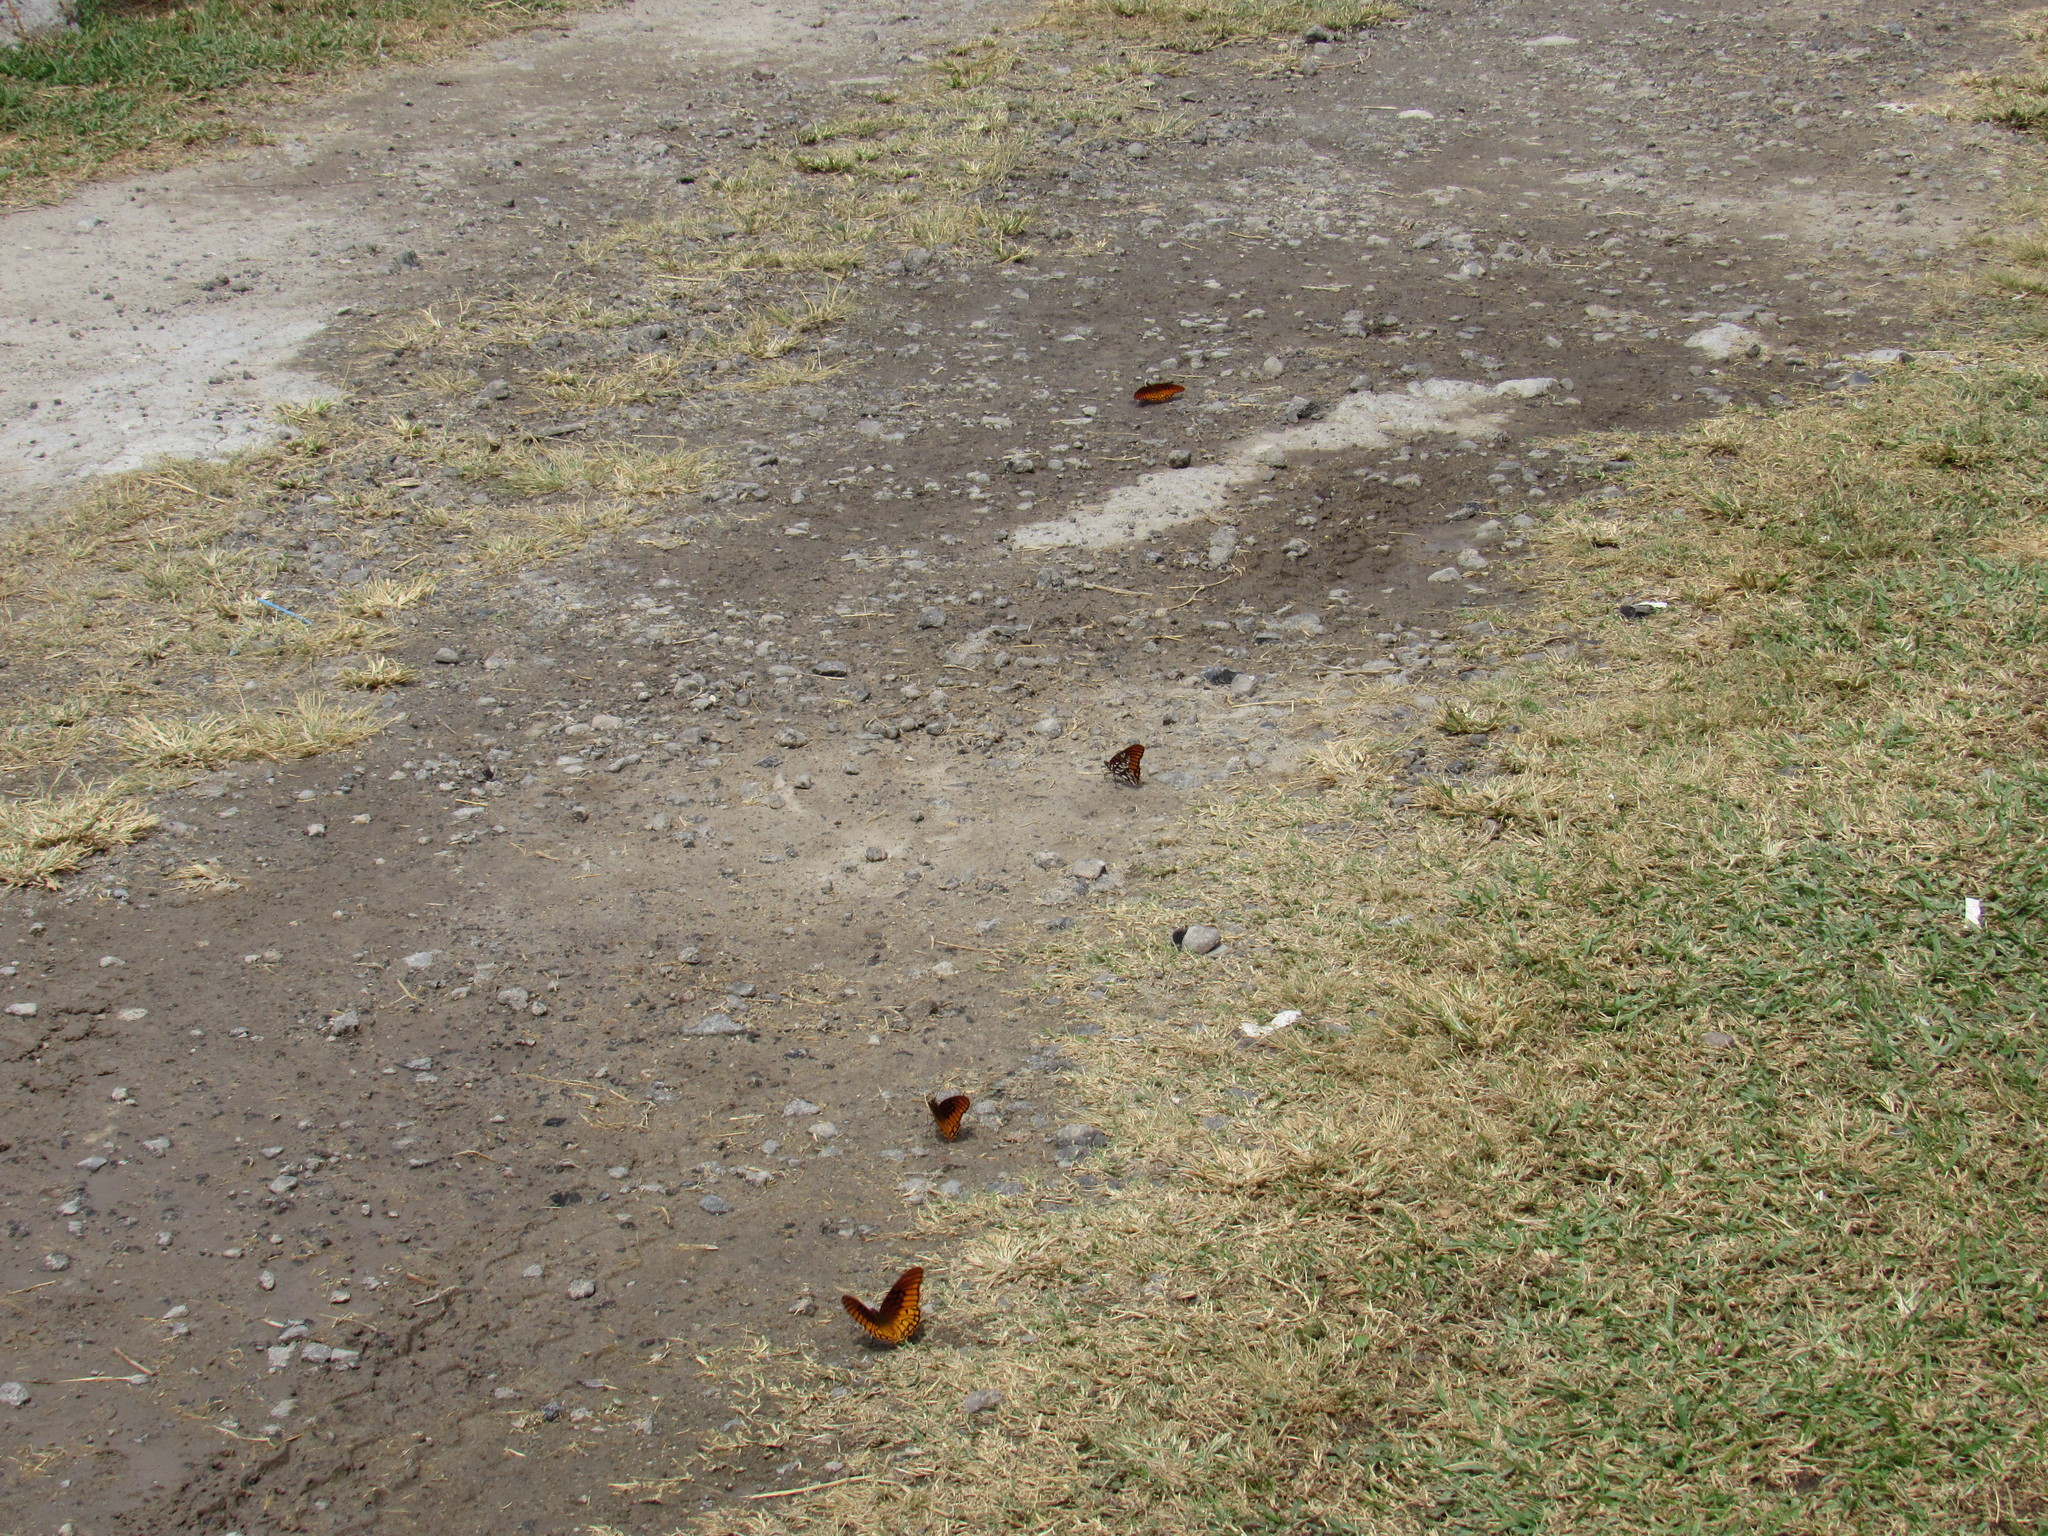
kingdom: Animalia
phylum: Arthropoda
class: Insecta
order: Lepidoptera
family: Nymphalidae
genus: Dione
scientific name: Dione moneta
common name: Mexican silverspot
